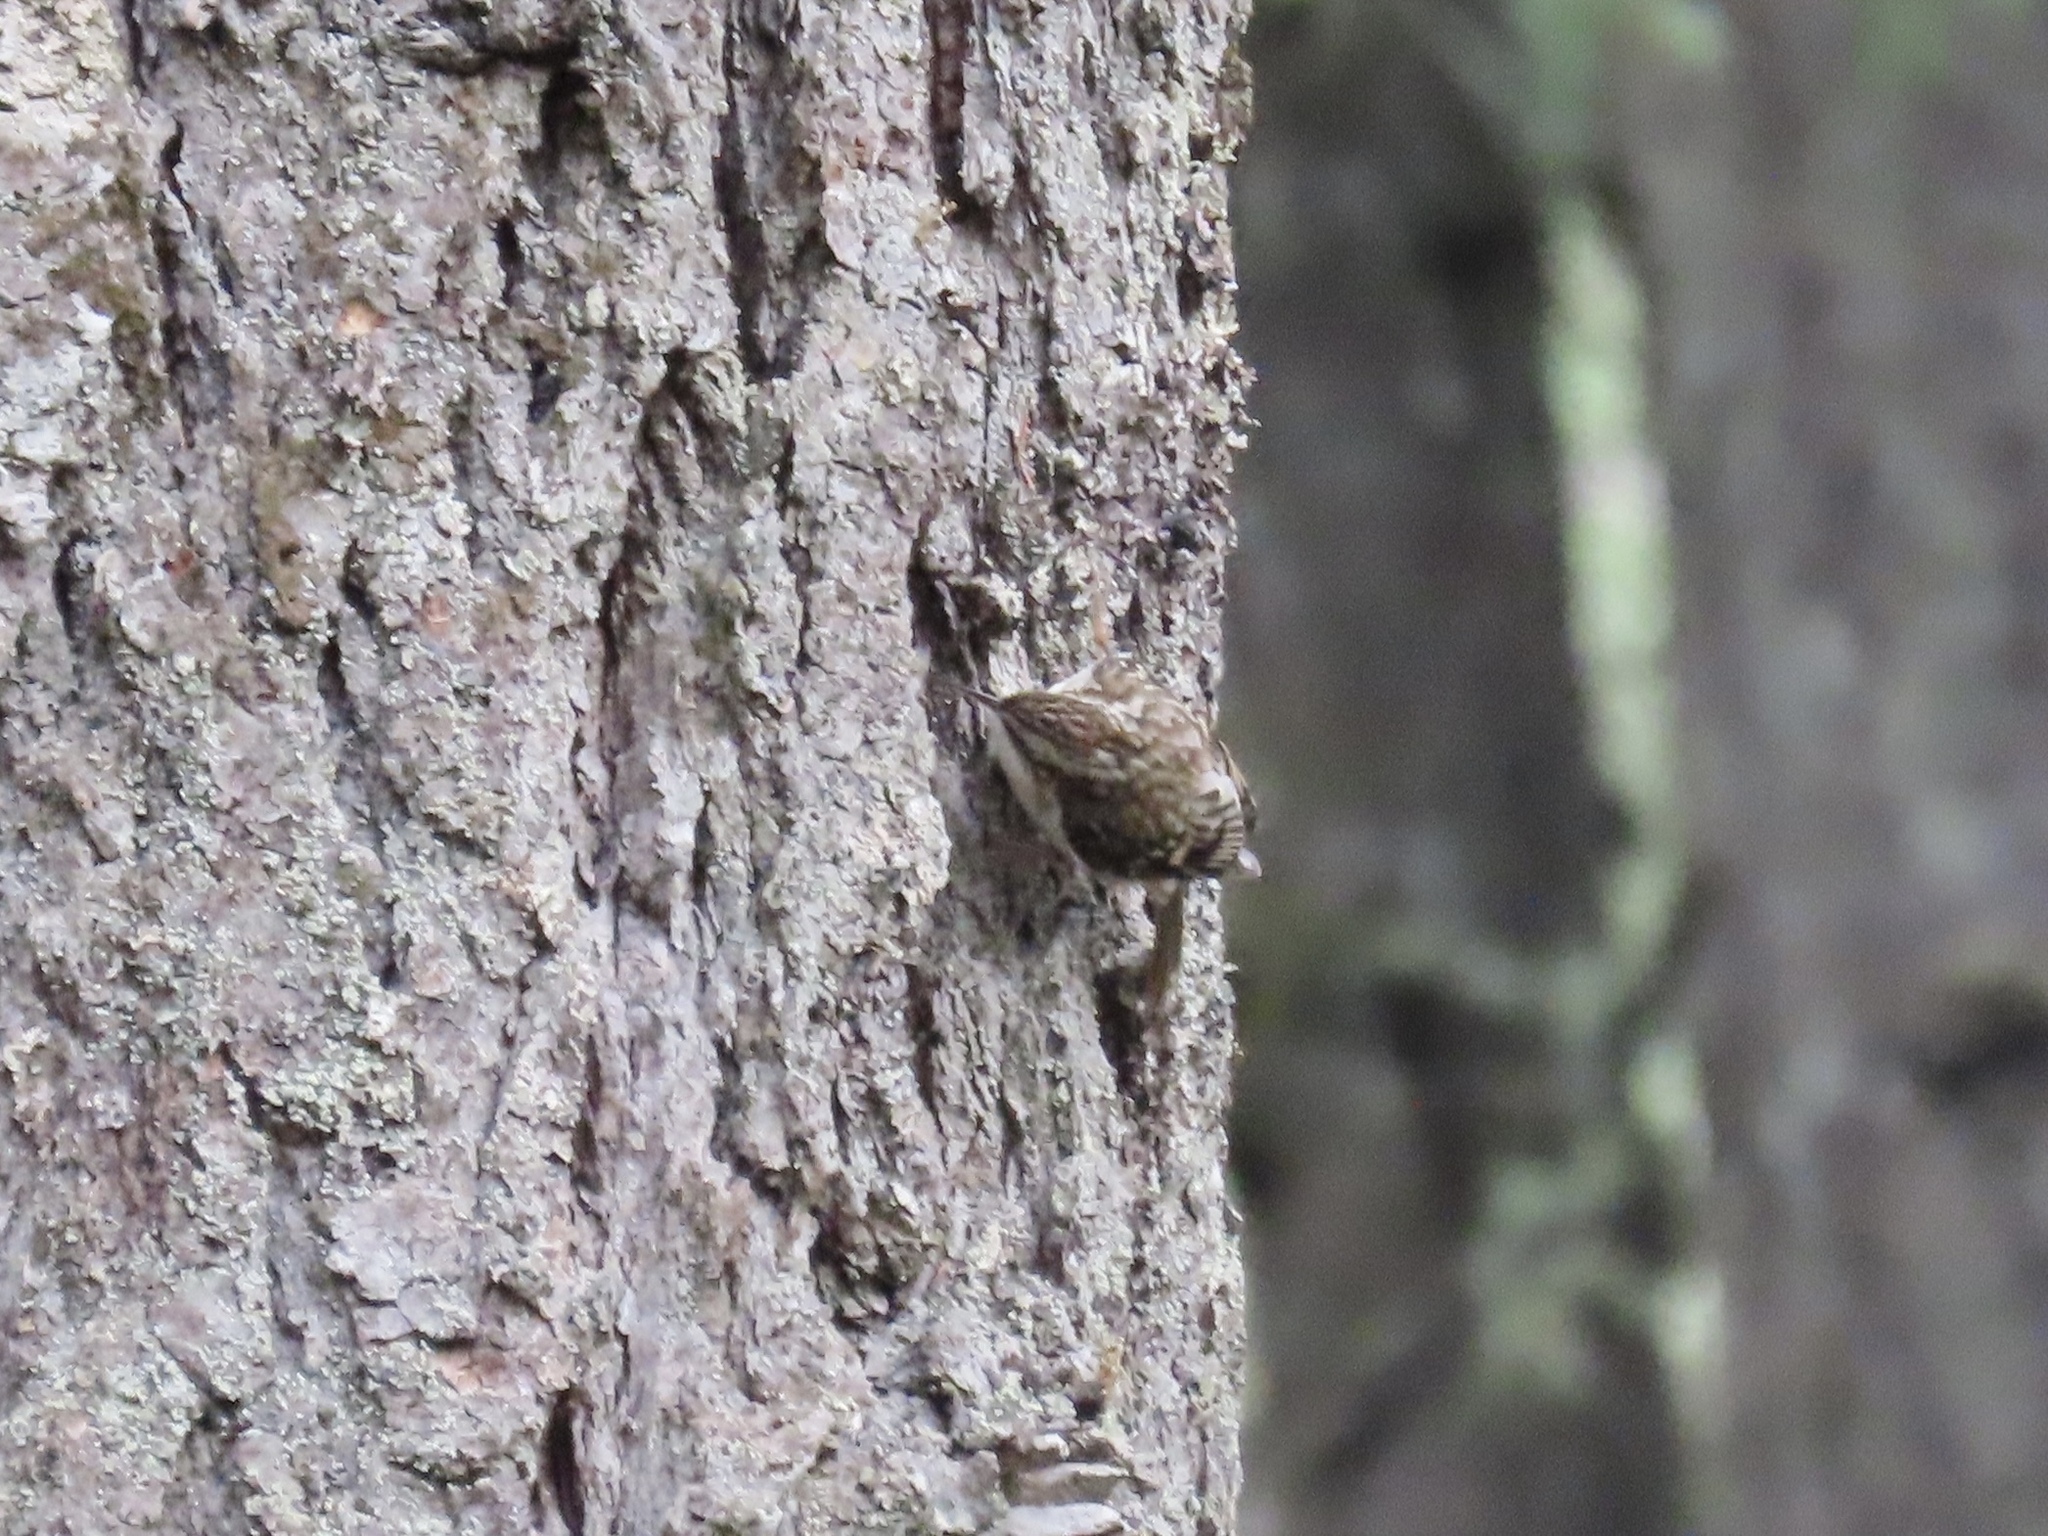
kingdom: Animalia
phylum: Chordata
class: Aves
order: Passeriformes
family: Certhiidae
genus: Certhia
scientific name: Certhia americana
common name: Brown creeper
